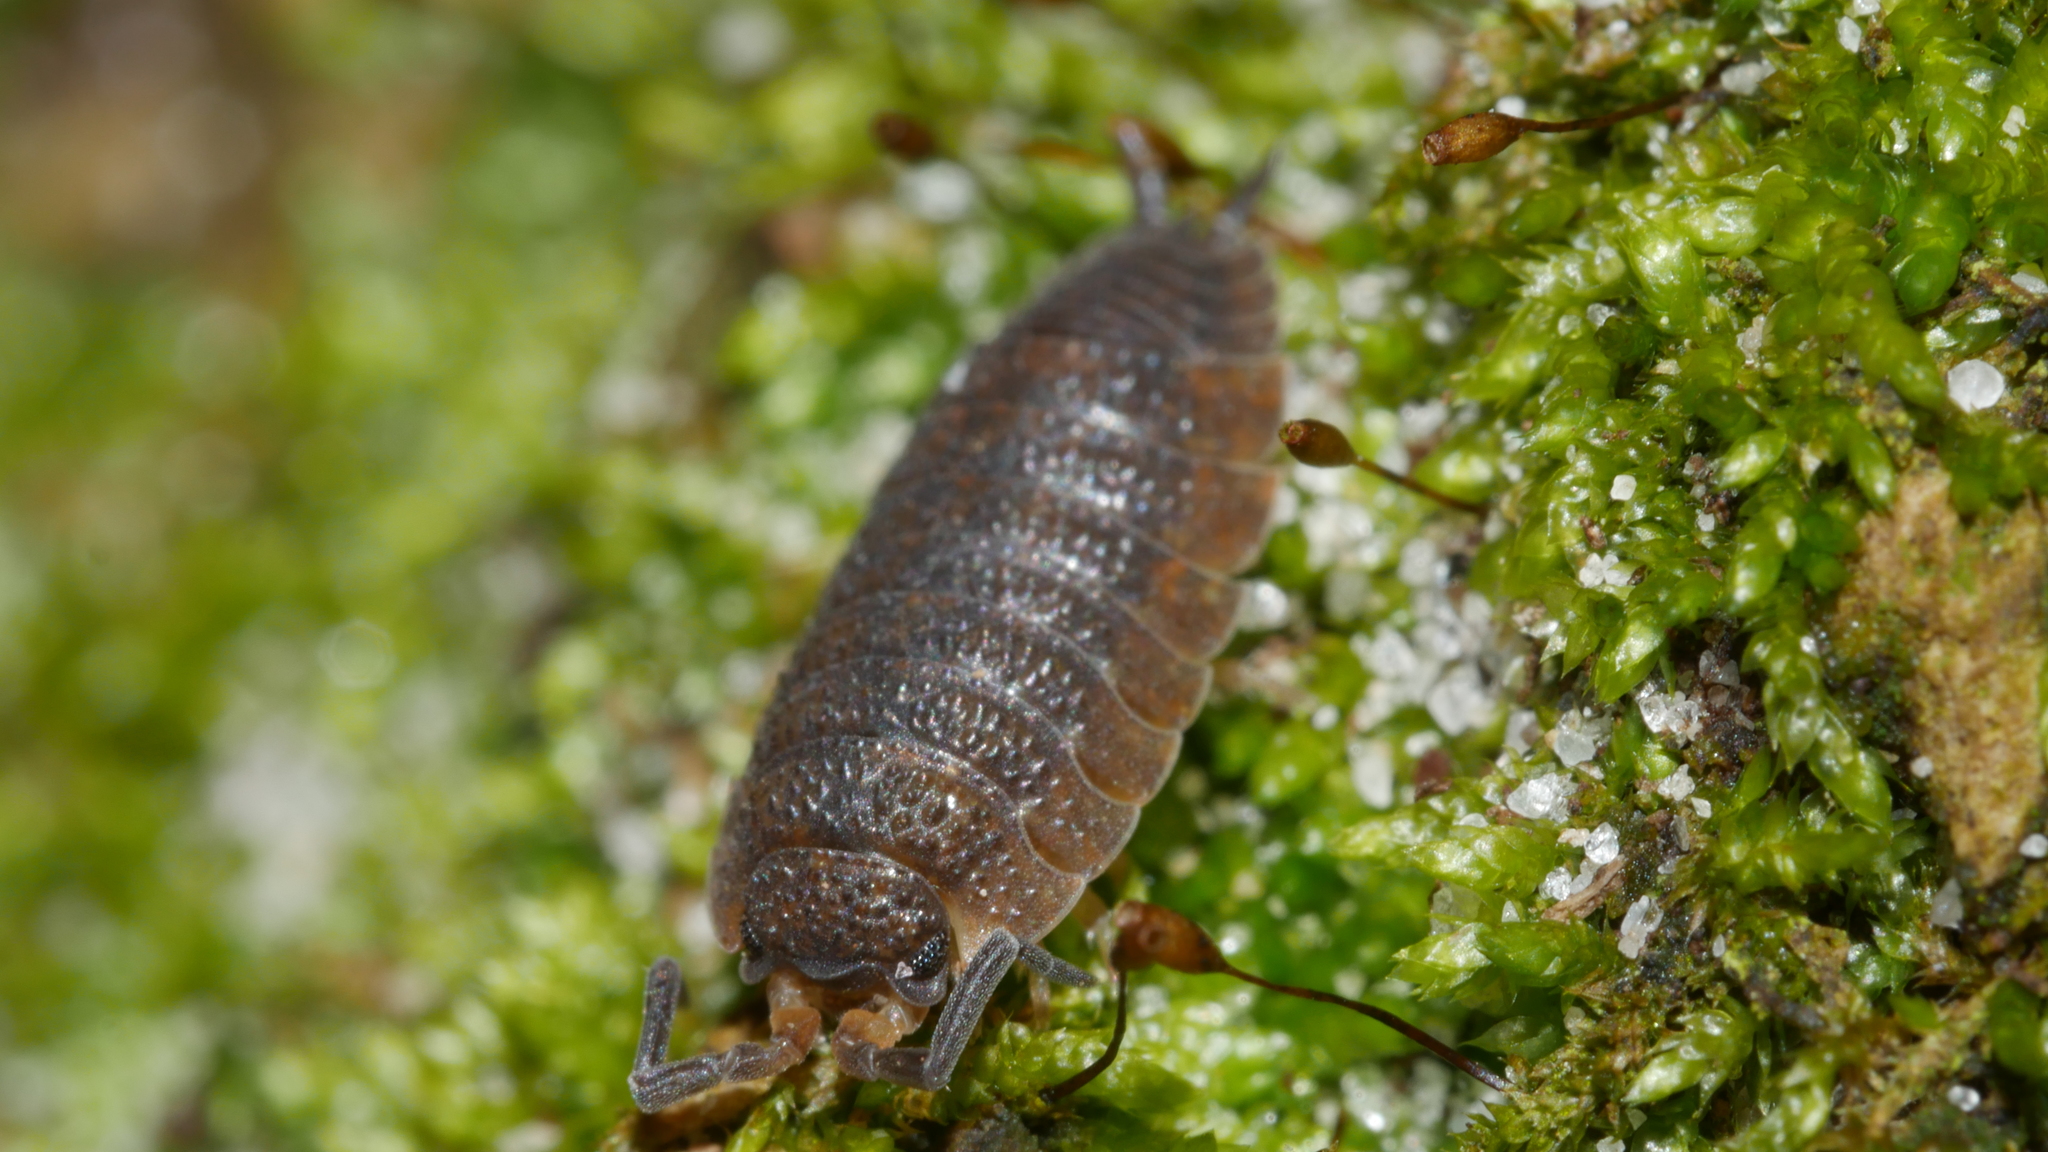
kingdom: Animalia
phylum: Arthropoda
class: Malacostraca
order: Isopoda
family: Porcellionidae
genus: Porcellio
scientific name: Porcellio scaber
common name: Common rough woodlouse
